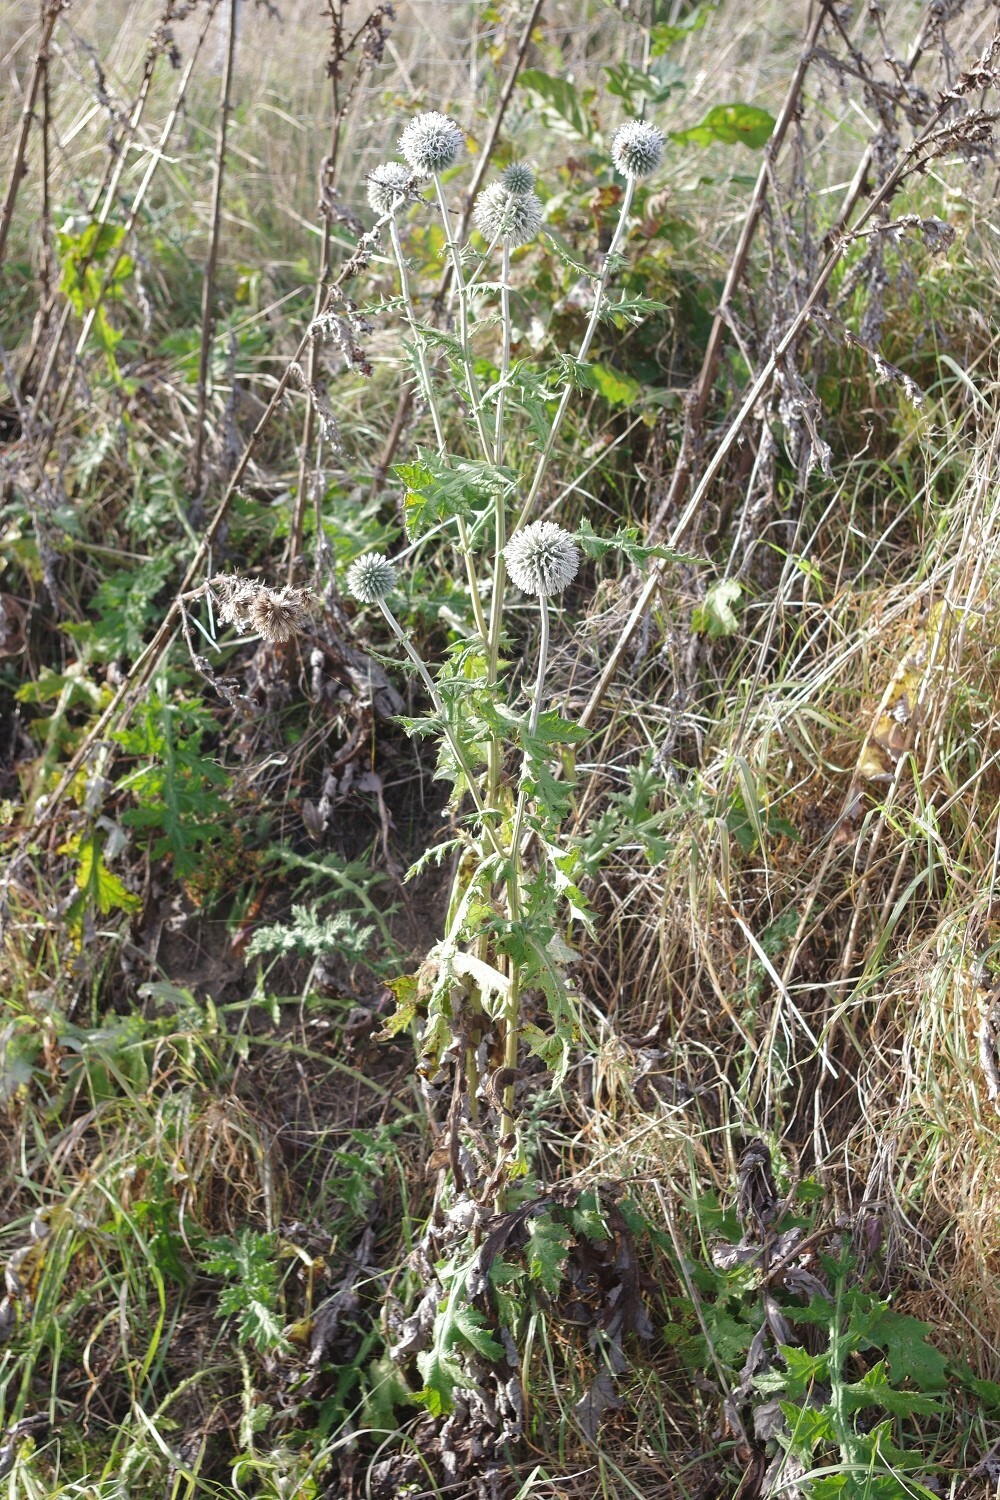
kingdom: Plantae
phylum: Tracheophyta
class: Magnoliopsida
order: Asterales
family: Asteraceae
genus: Echinops
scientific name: Echinops sphaerocephalus
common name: Glandular globe-thistle
